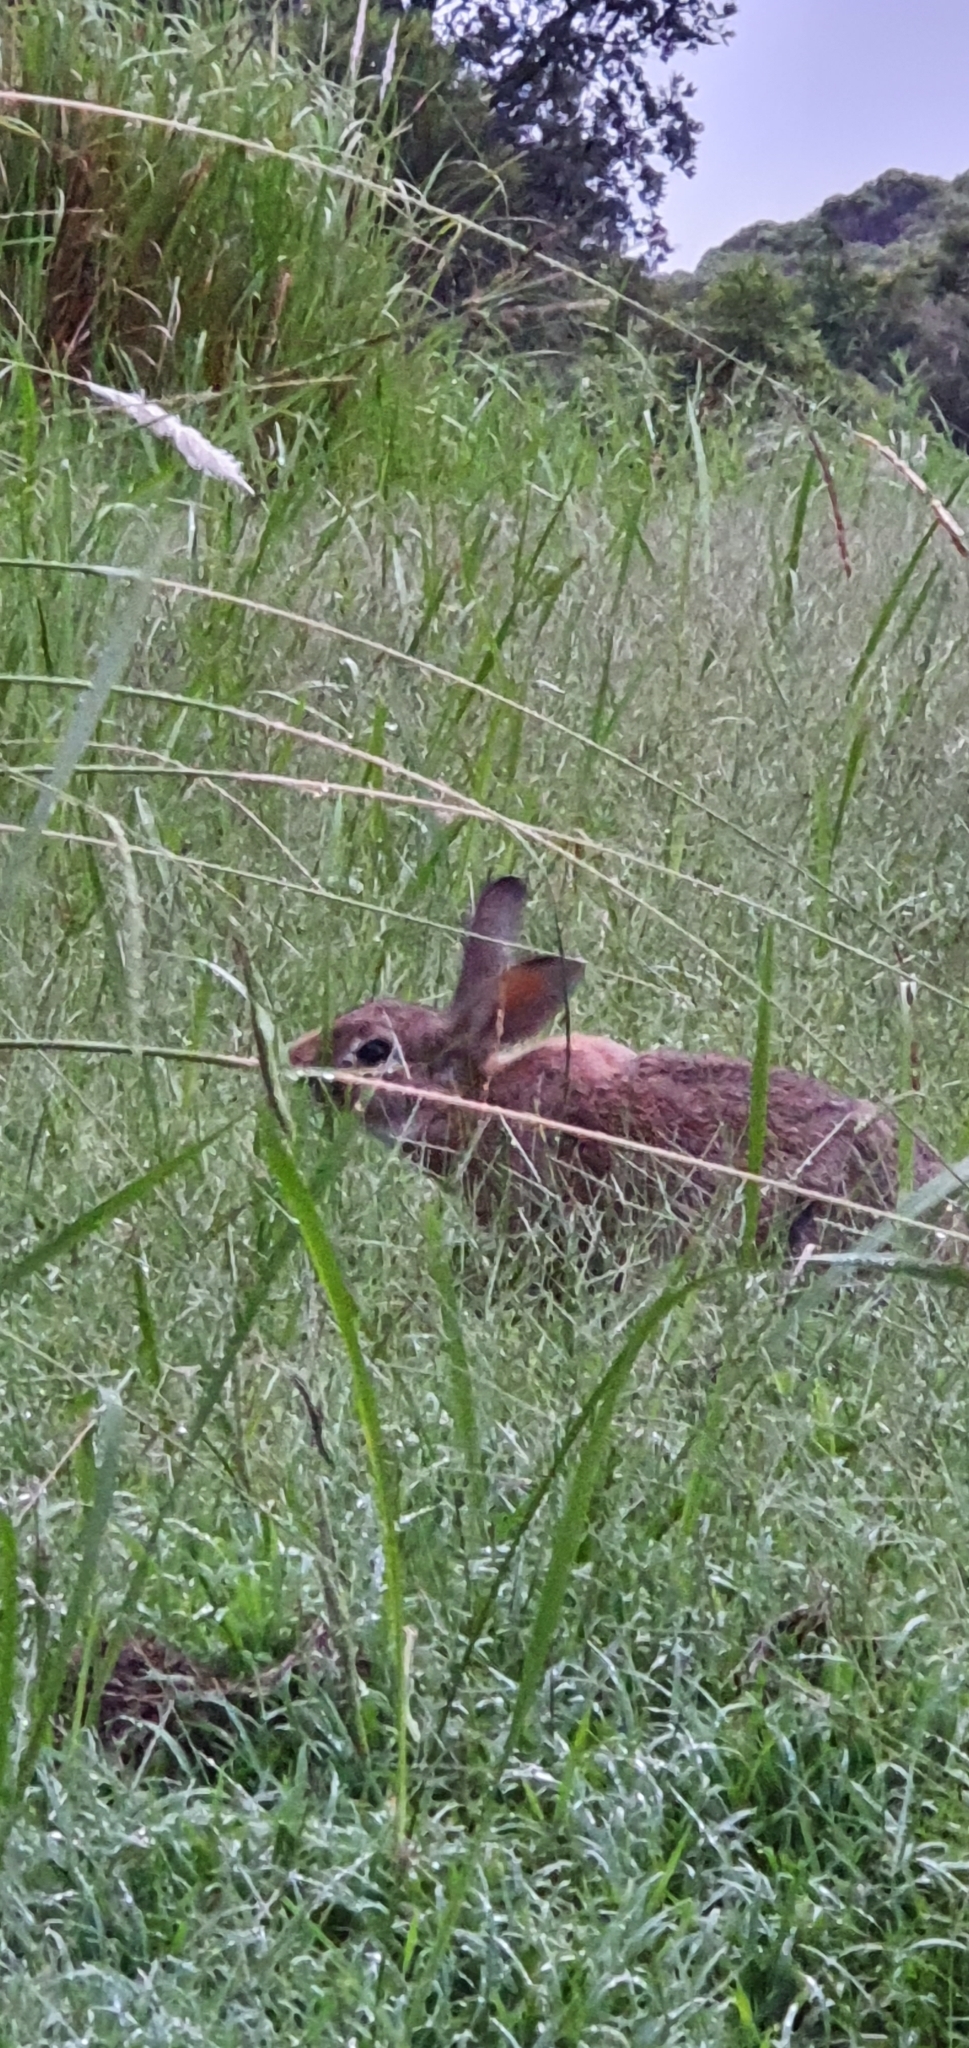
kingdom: Animalia
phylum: Chordata
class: Mammalia
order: Lagomorpha
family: Leporidae
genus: Oryctolagus
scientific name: Oryctolagus cuniculus
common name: European rabbit
